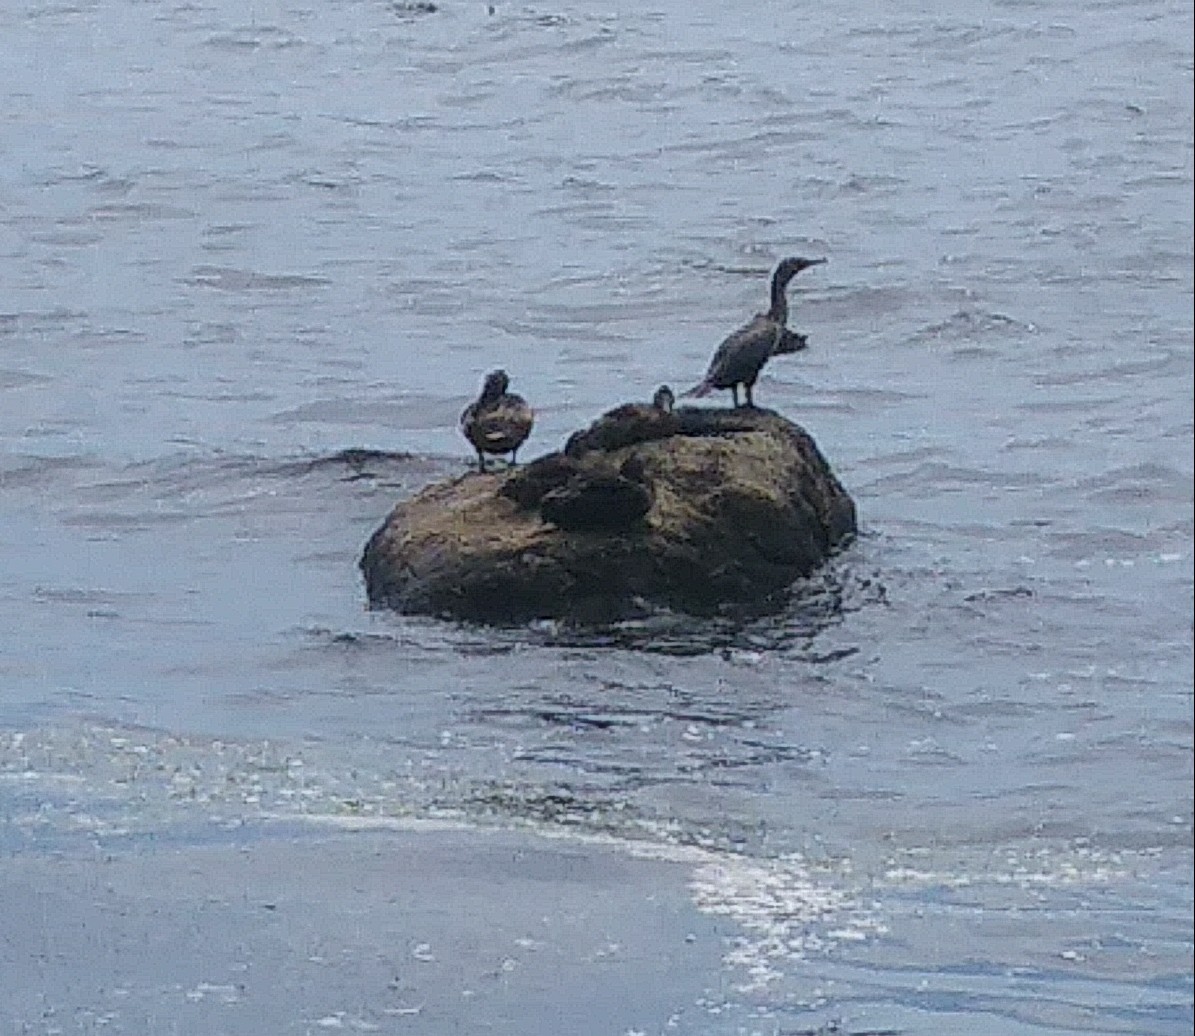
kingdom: Animalia
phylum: Chordata
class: Aves
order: Suliformes
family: Phalacrocoracidae
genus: Phalacrocorax
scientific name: Phalacrocorax auritus
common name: Double-crested cormorant
